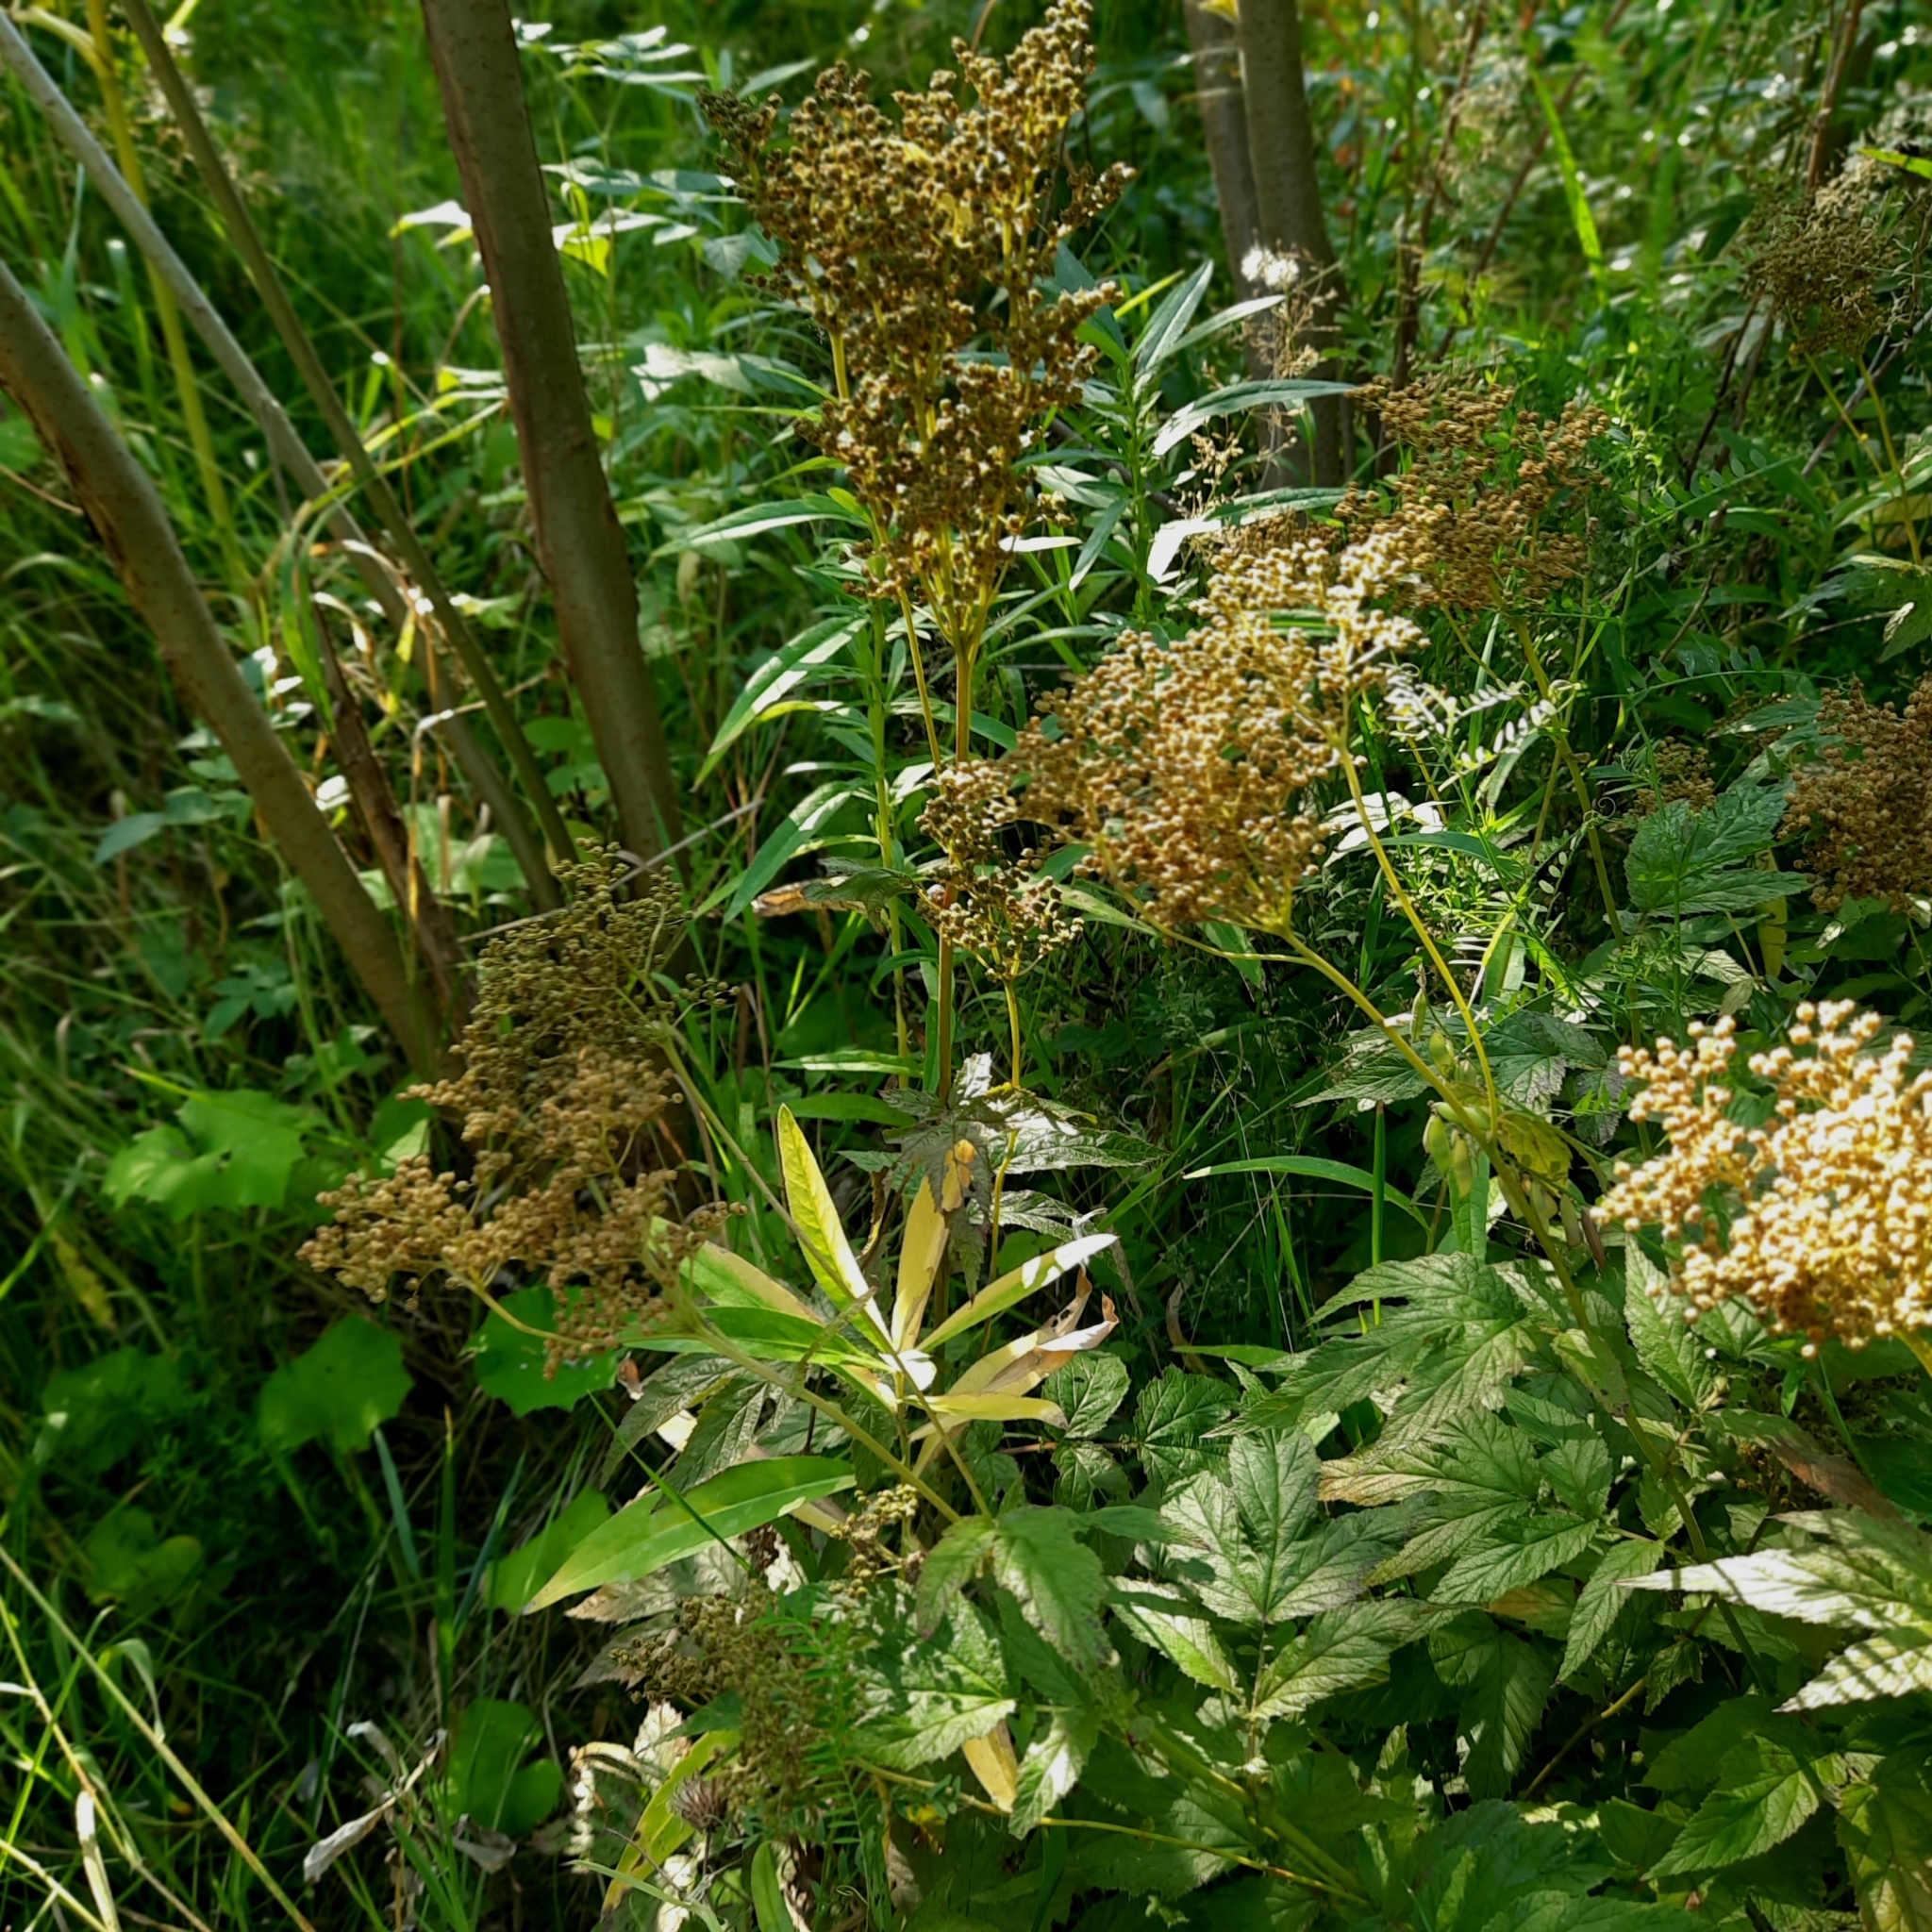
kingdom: Plantae
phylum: Tracheophyta
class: Magnoliopsida
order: Rosales
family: Rosaceae
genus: Filipendula
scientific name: Filipendula ulmaria
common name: Meadowsweet
